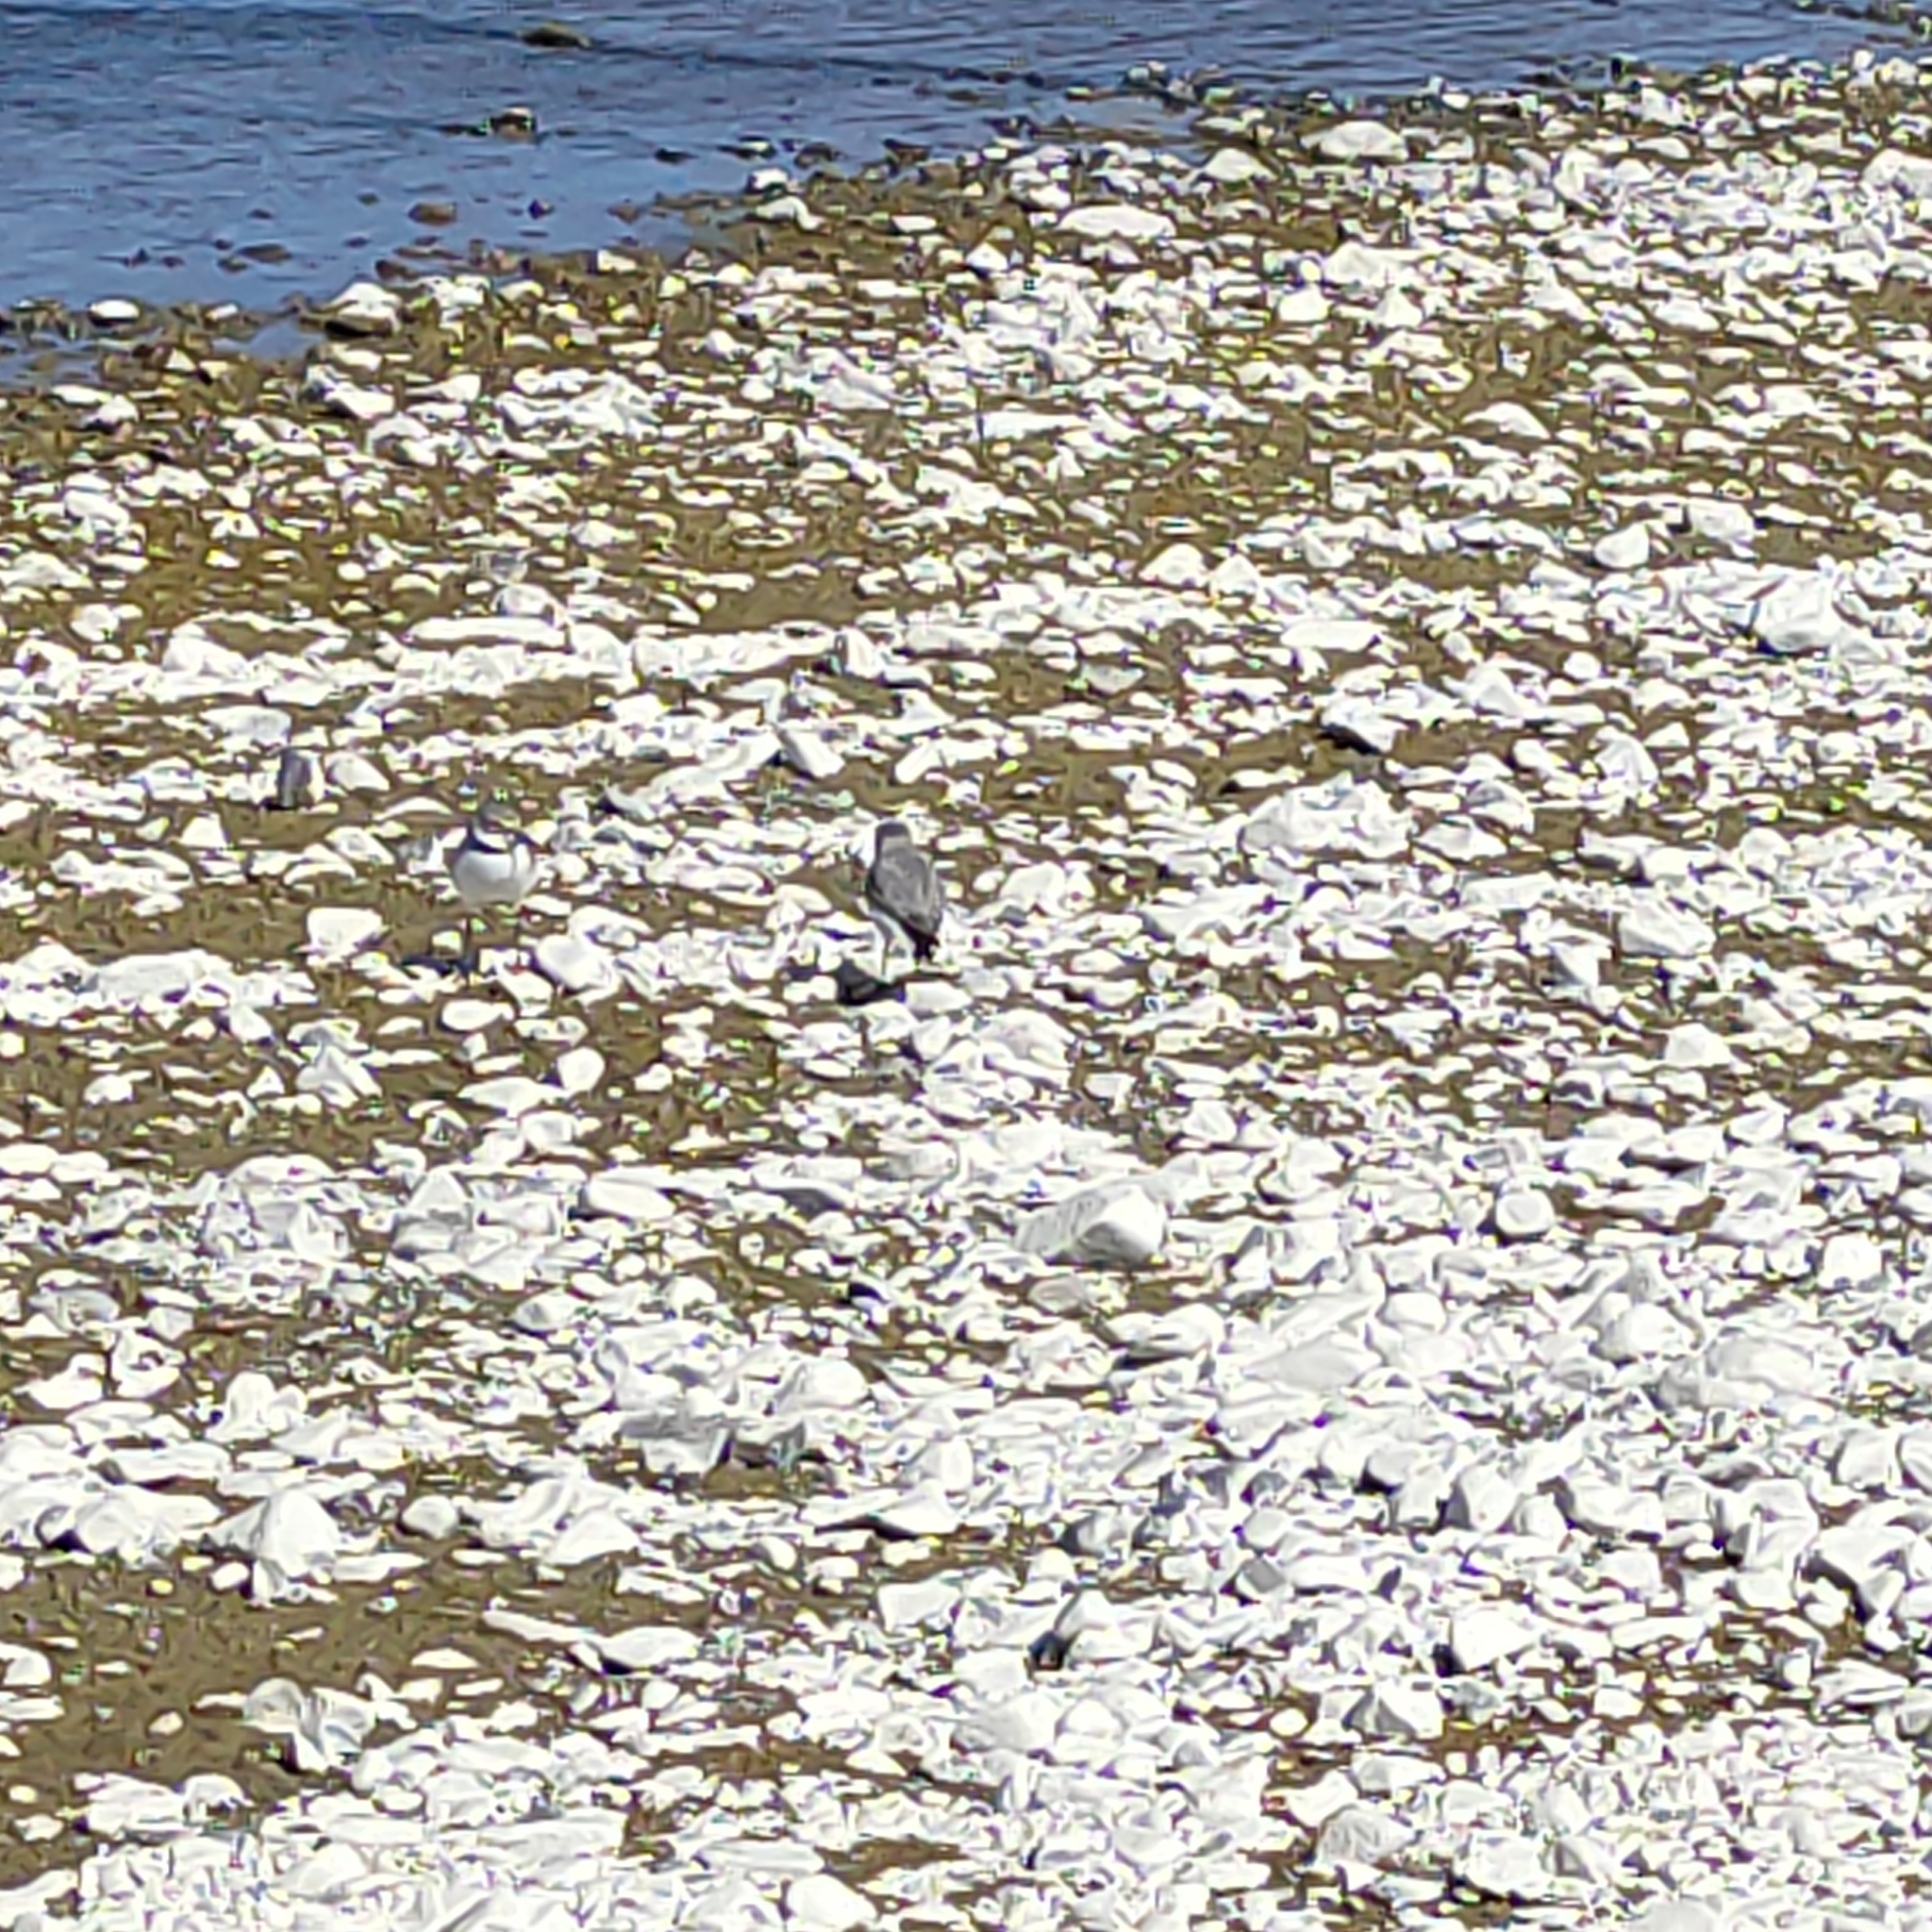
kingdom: Animalia
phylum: Chordata
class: Aves
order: Charadriiformes
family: Charadriidae
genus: Anarhynchus
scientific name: Anarhynchus
